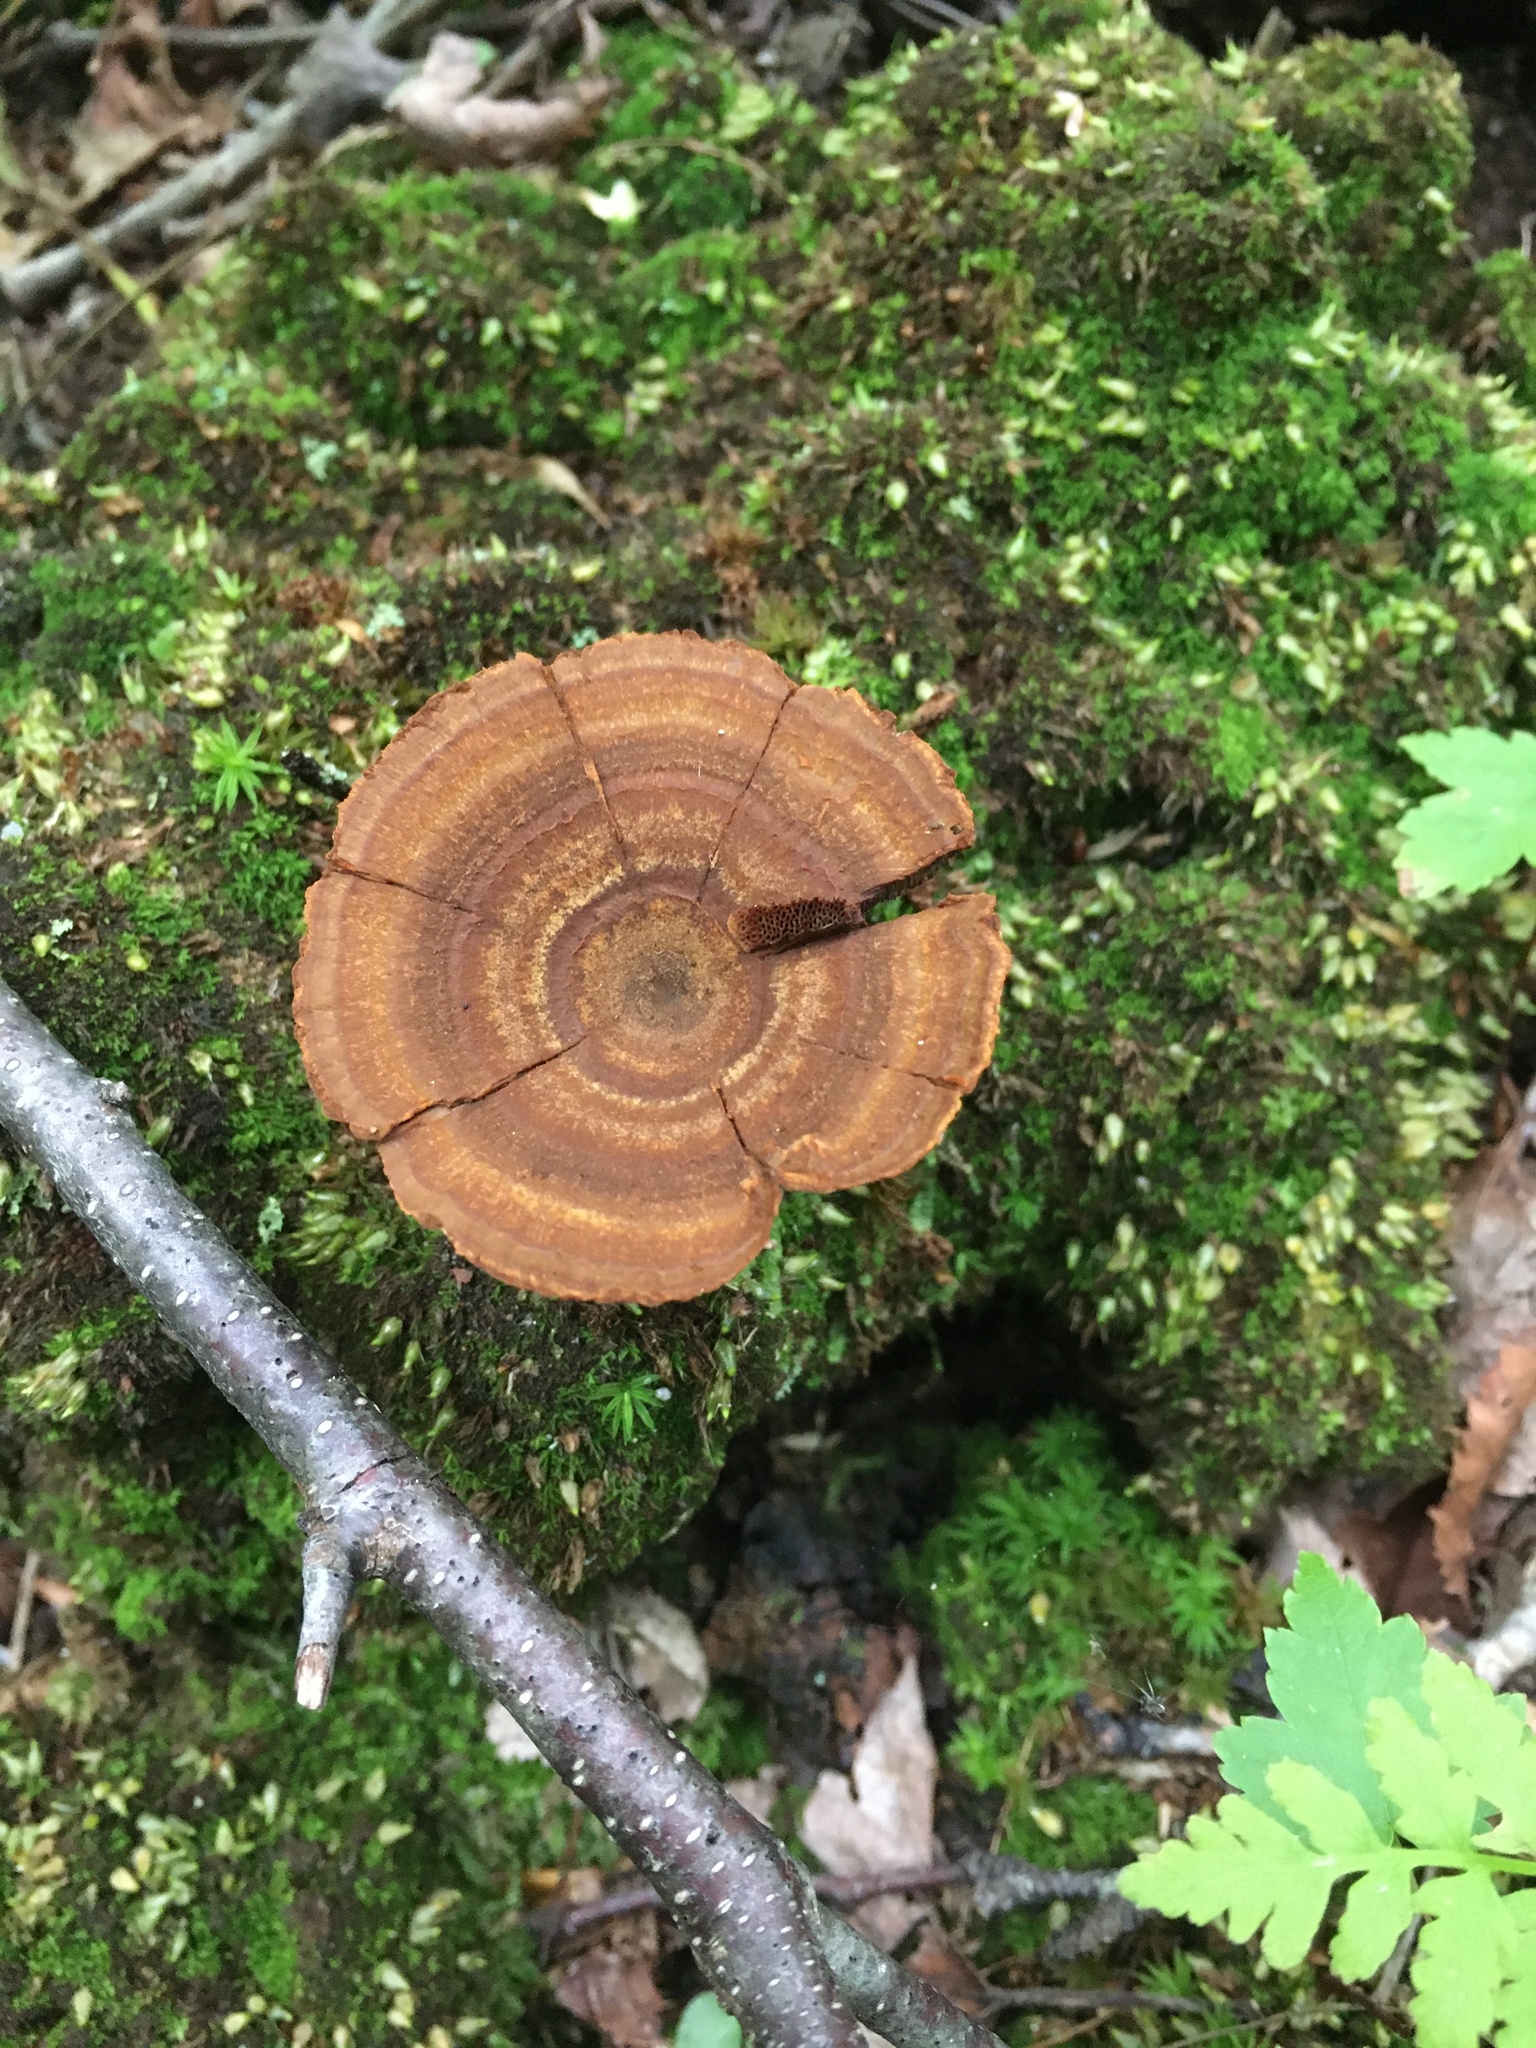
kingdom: Fungi
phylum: Basidiomycota
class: Agaricomycetes
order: Hymenochaetales
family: Hymenochaetaceae
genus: Coltricia
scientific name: Coltricia perennis
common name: Tiger's eye
